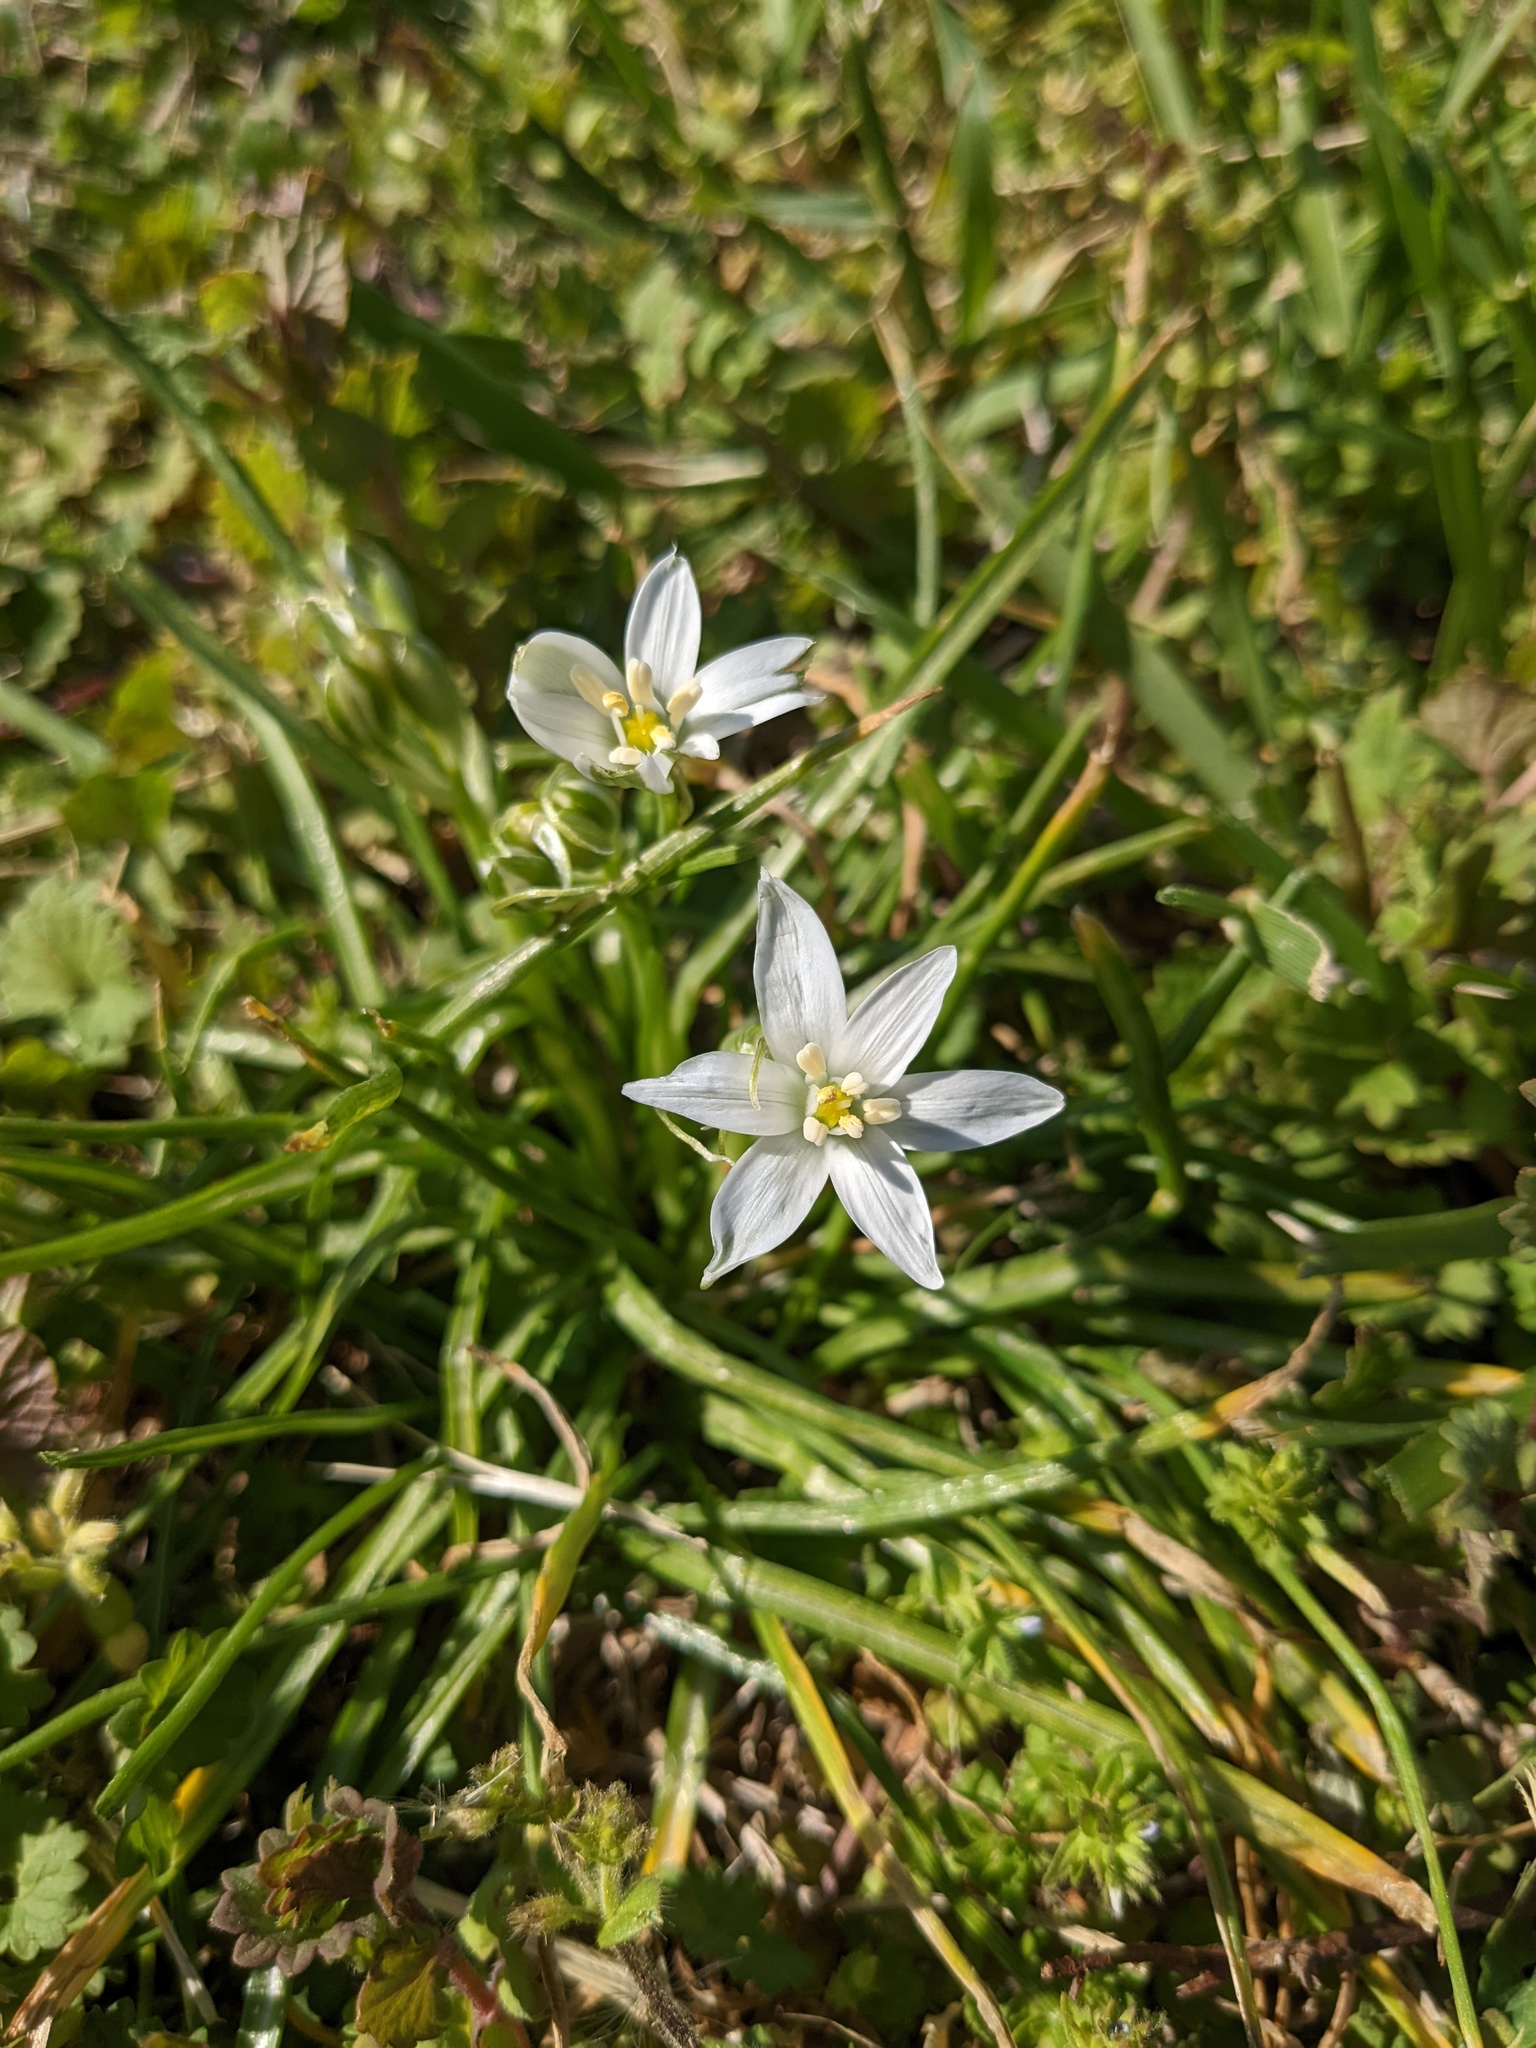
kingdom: Plantae
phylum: Tracheophyta
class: Liliopsida
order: Asparagales
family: Asparagaceae
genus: Ornithogalum
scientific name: Ornithogalum umbellatum
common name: Garden star-of-bethlehem
